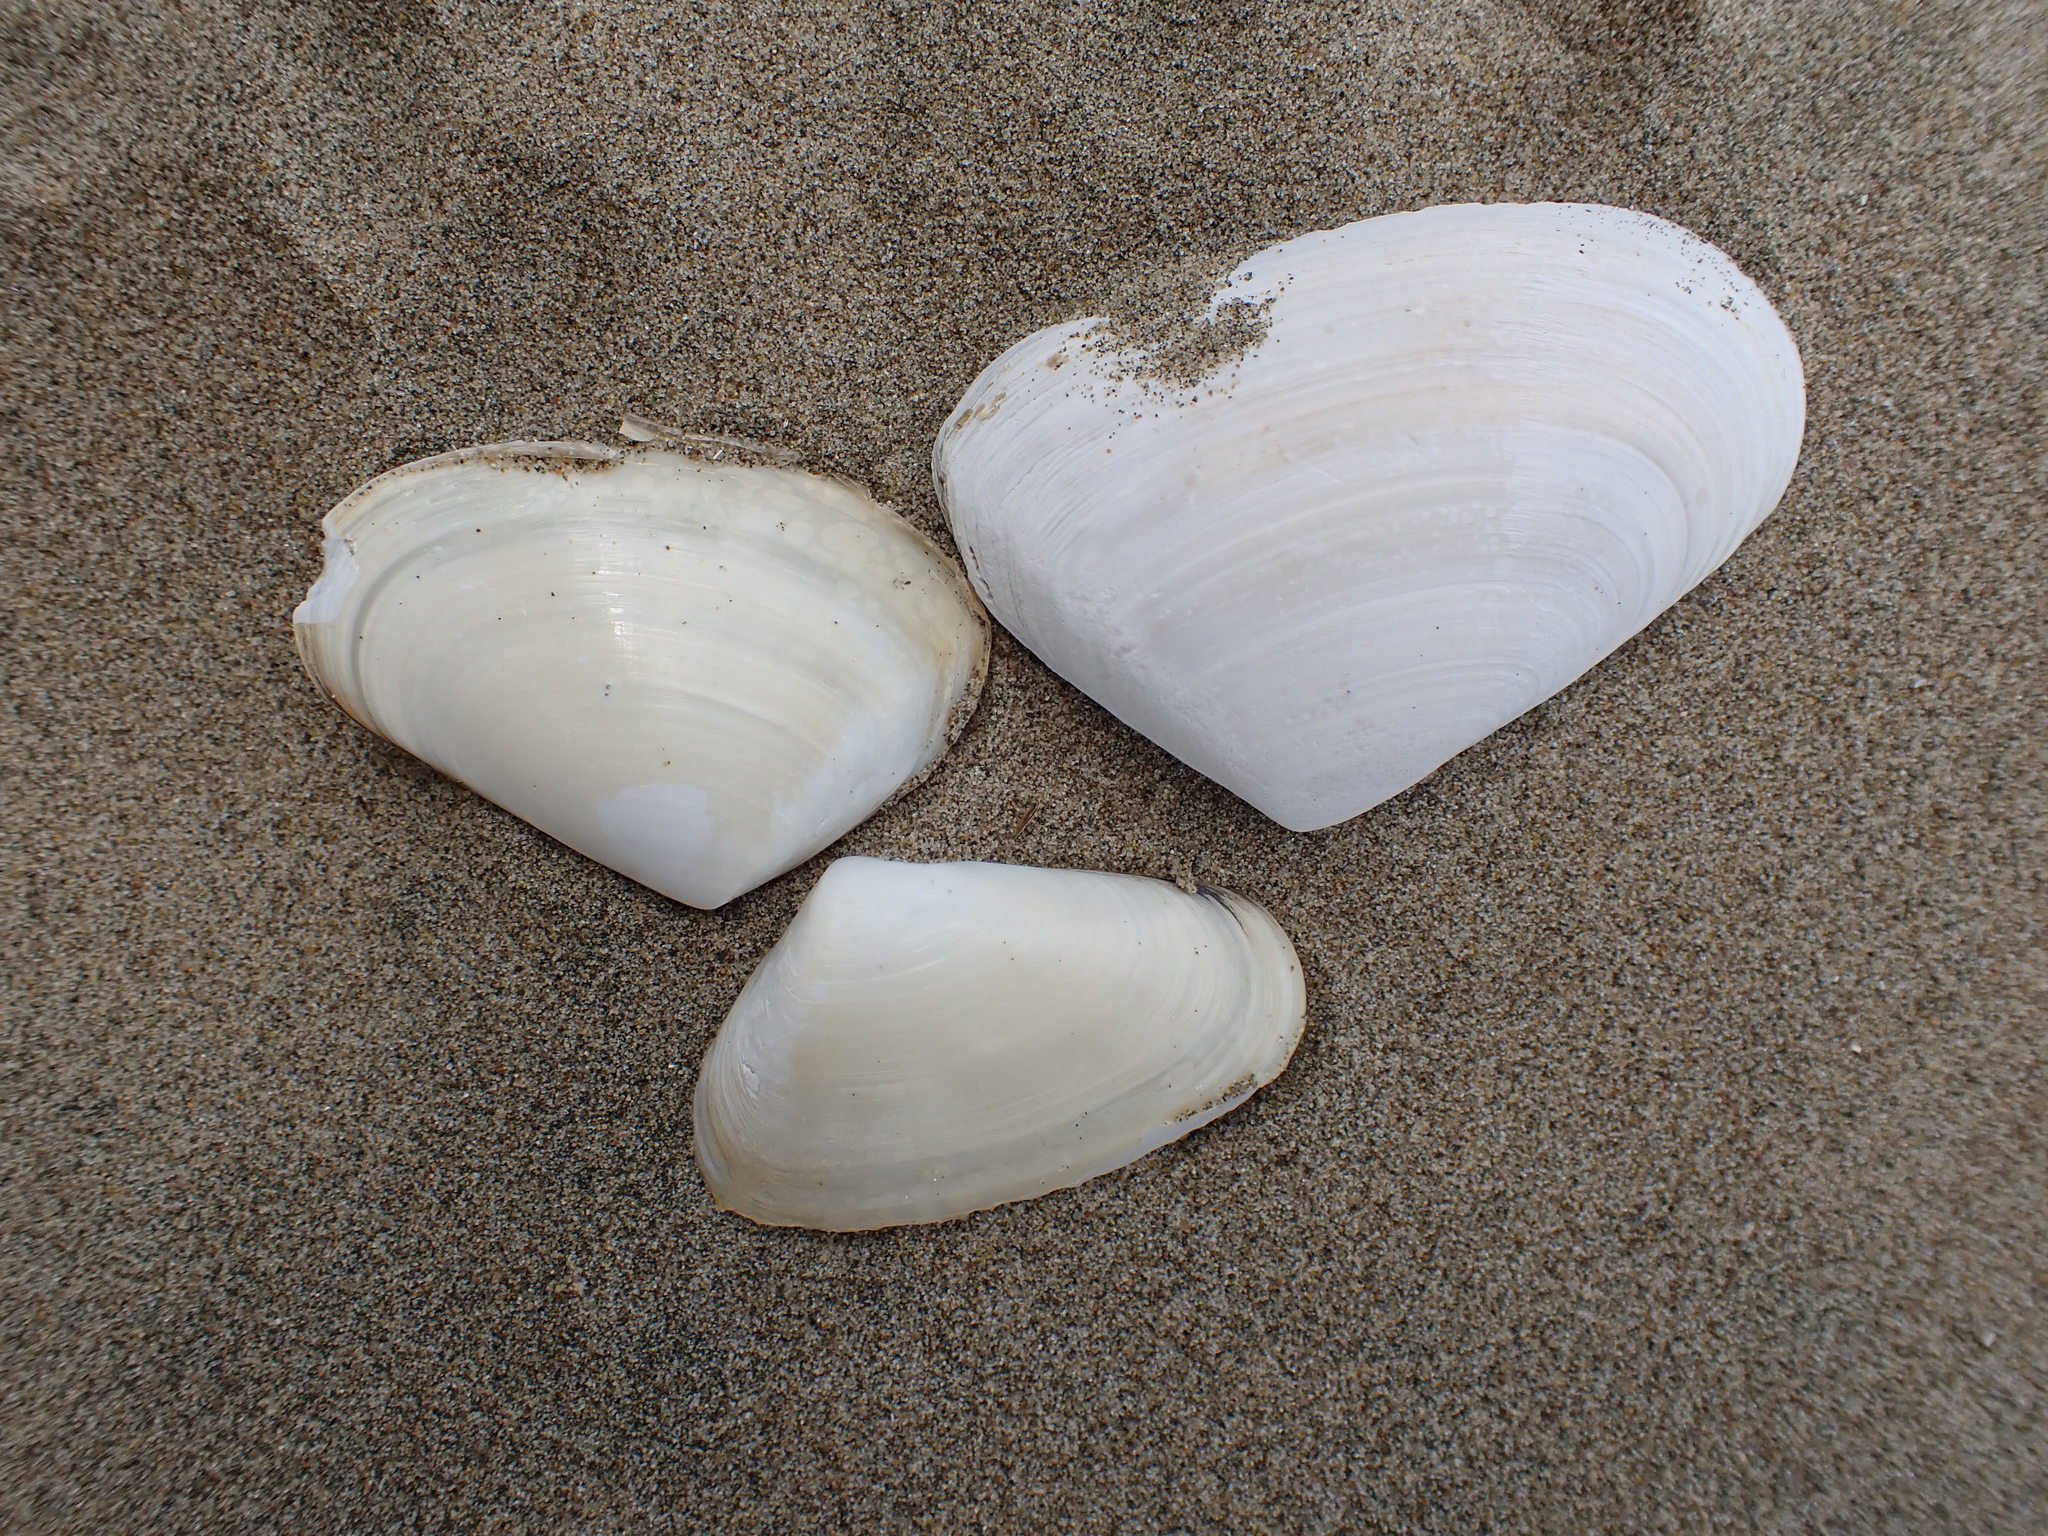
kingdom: Animalia
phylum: Mollusca
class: Bivalvia
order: Venerida
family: Mesodesmatidae
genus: Paphies
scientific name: Paphies subtriangulata
